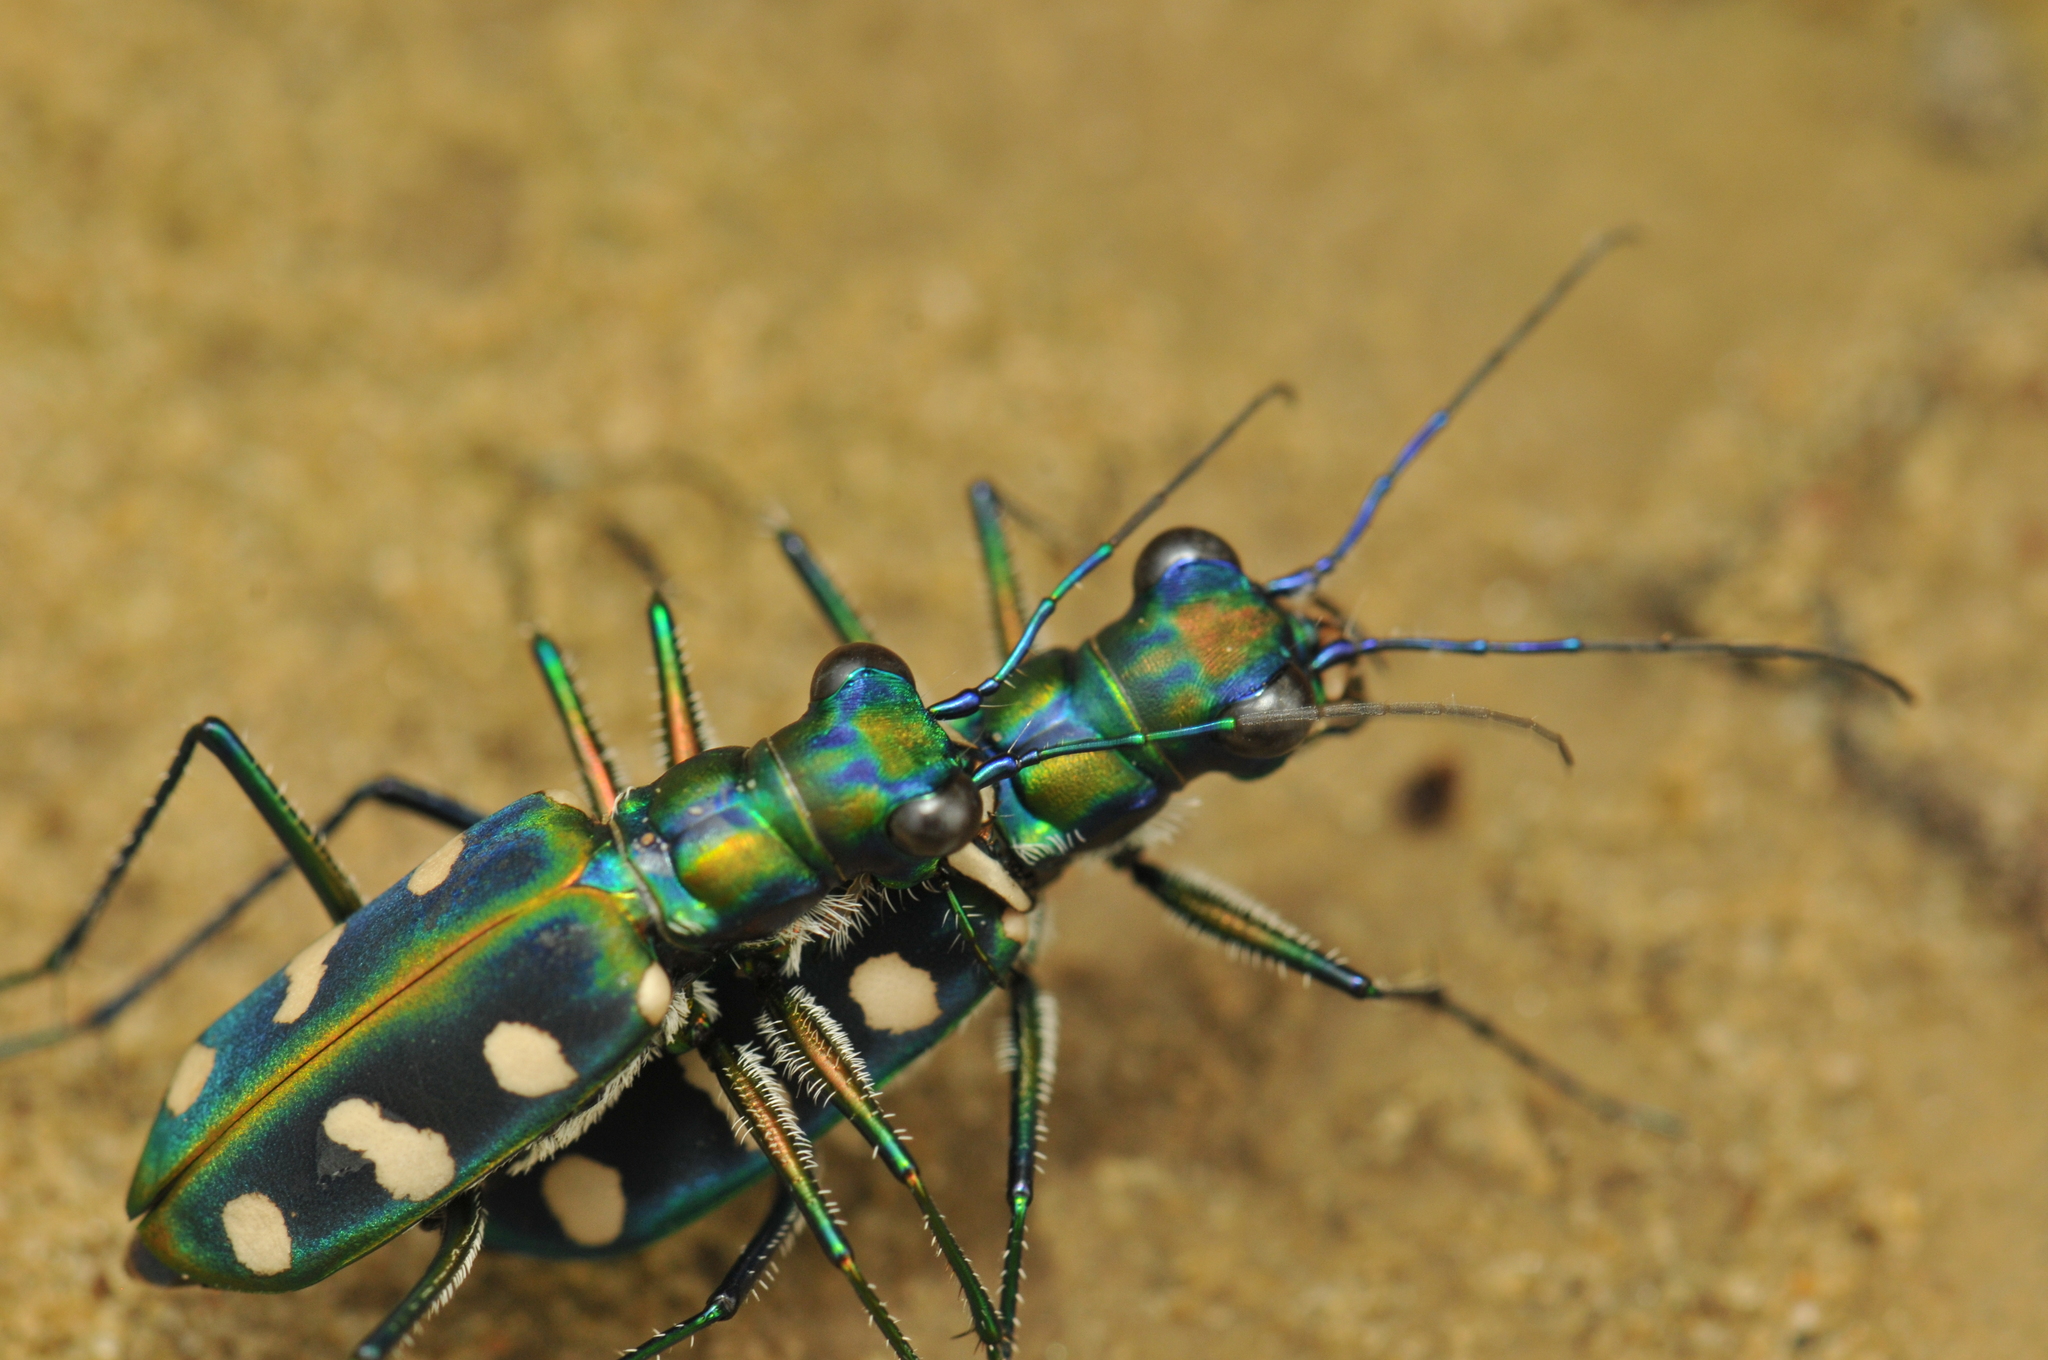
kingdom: Animalia
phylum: Arthropoda
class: Insecta
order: Coleoptera
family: Carabidae
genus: Cicindela
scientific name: Cicindela batesi
